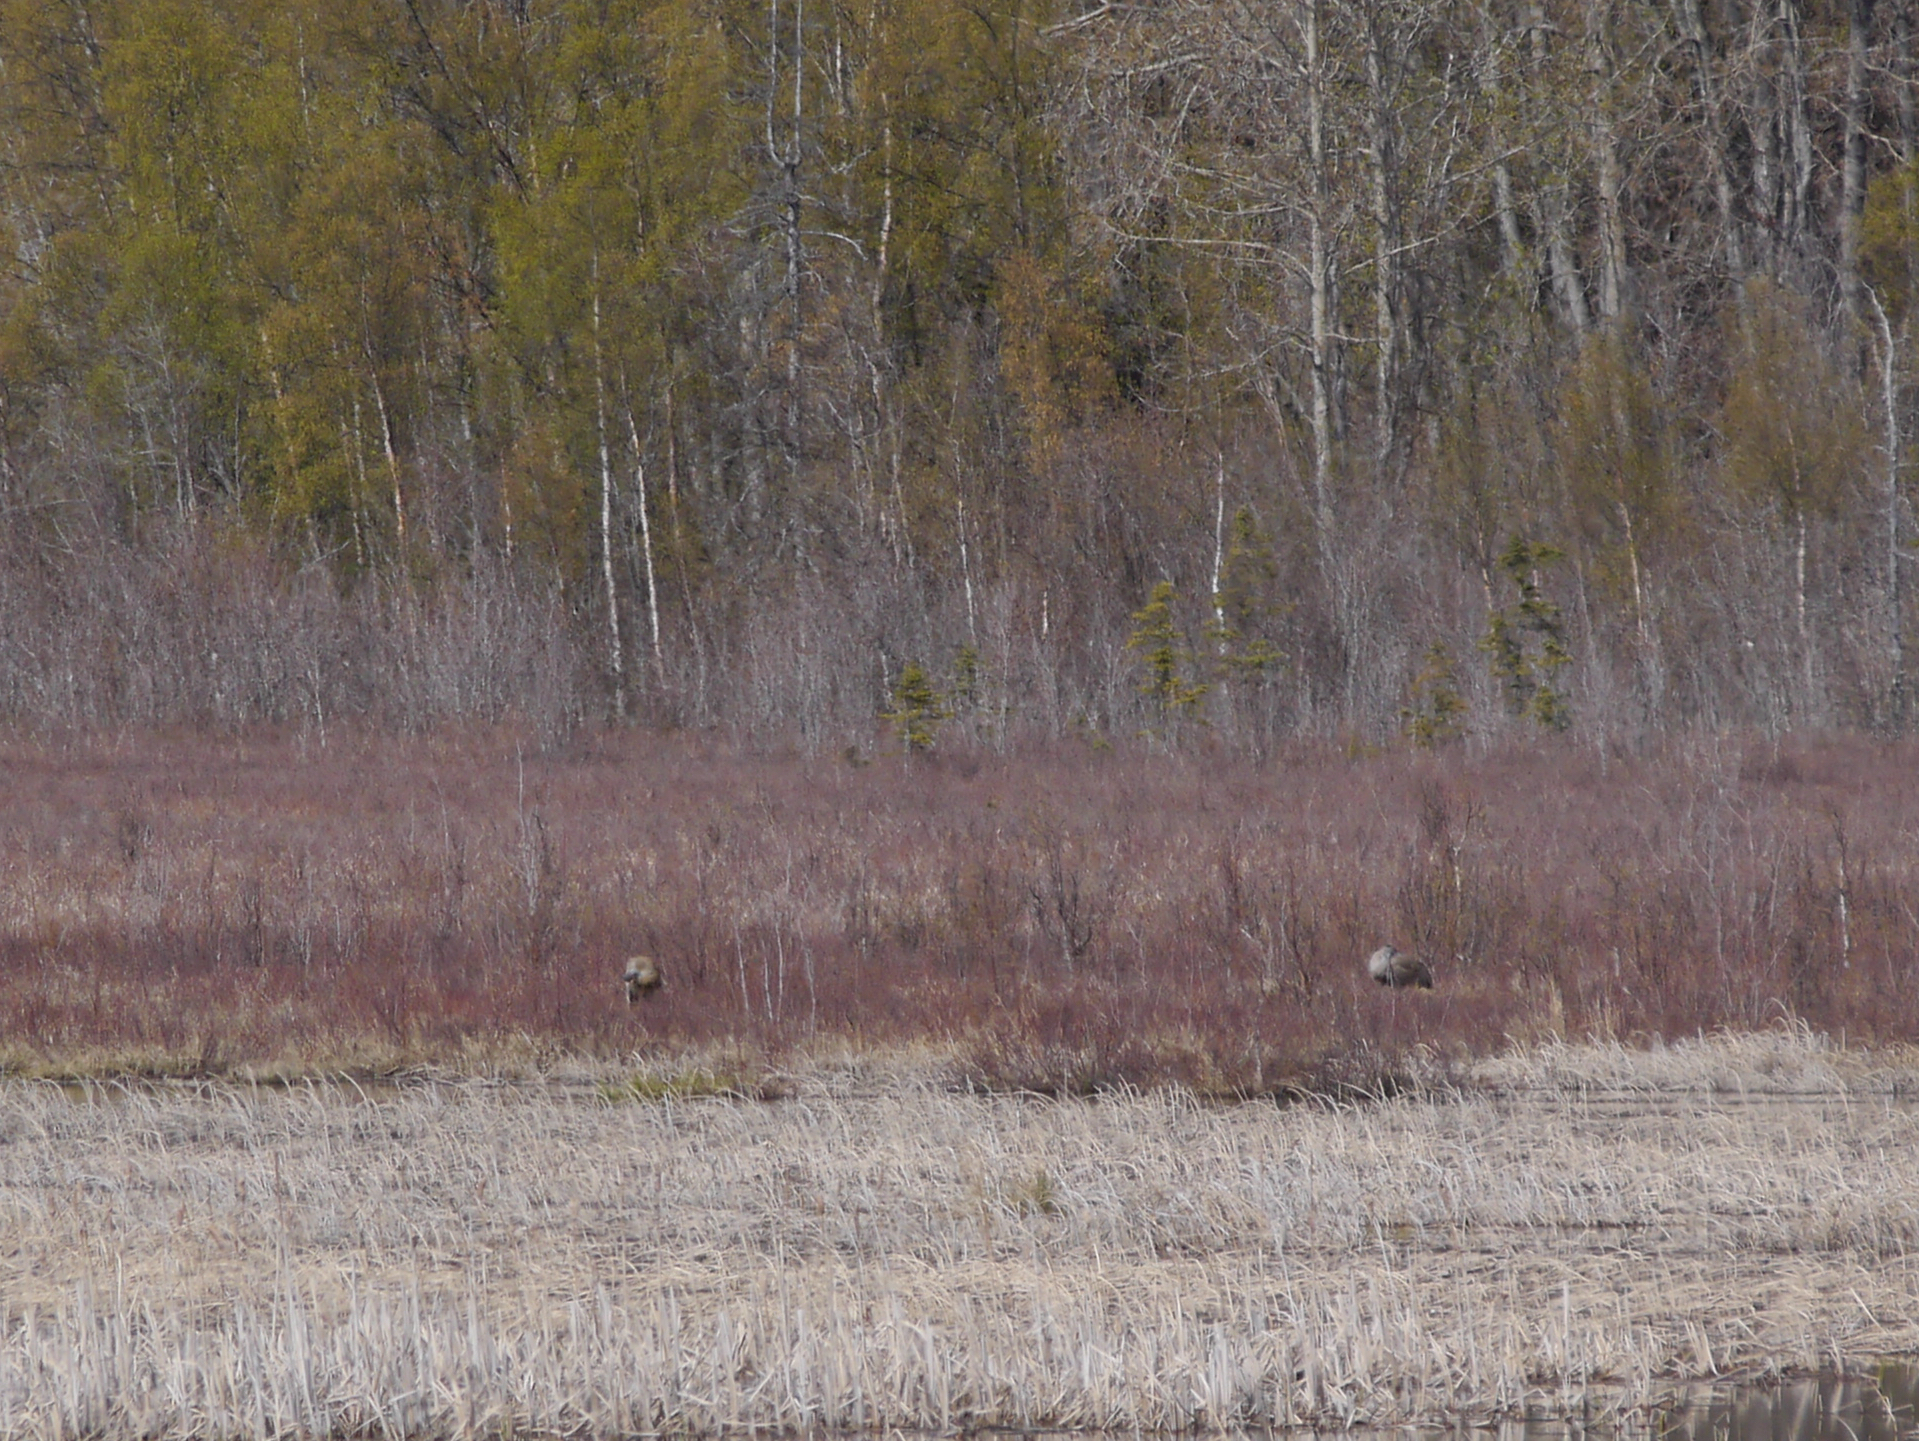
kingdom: Animalia
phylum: Chordata
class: Aves
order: Gruiformes
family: Gruidae
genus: Grus
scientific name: Grus canadensis
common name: Sandhill crane
